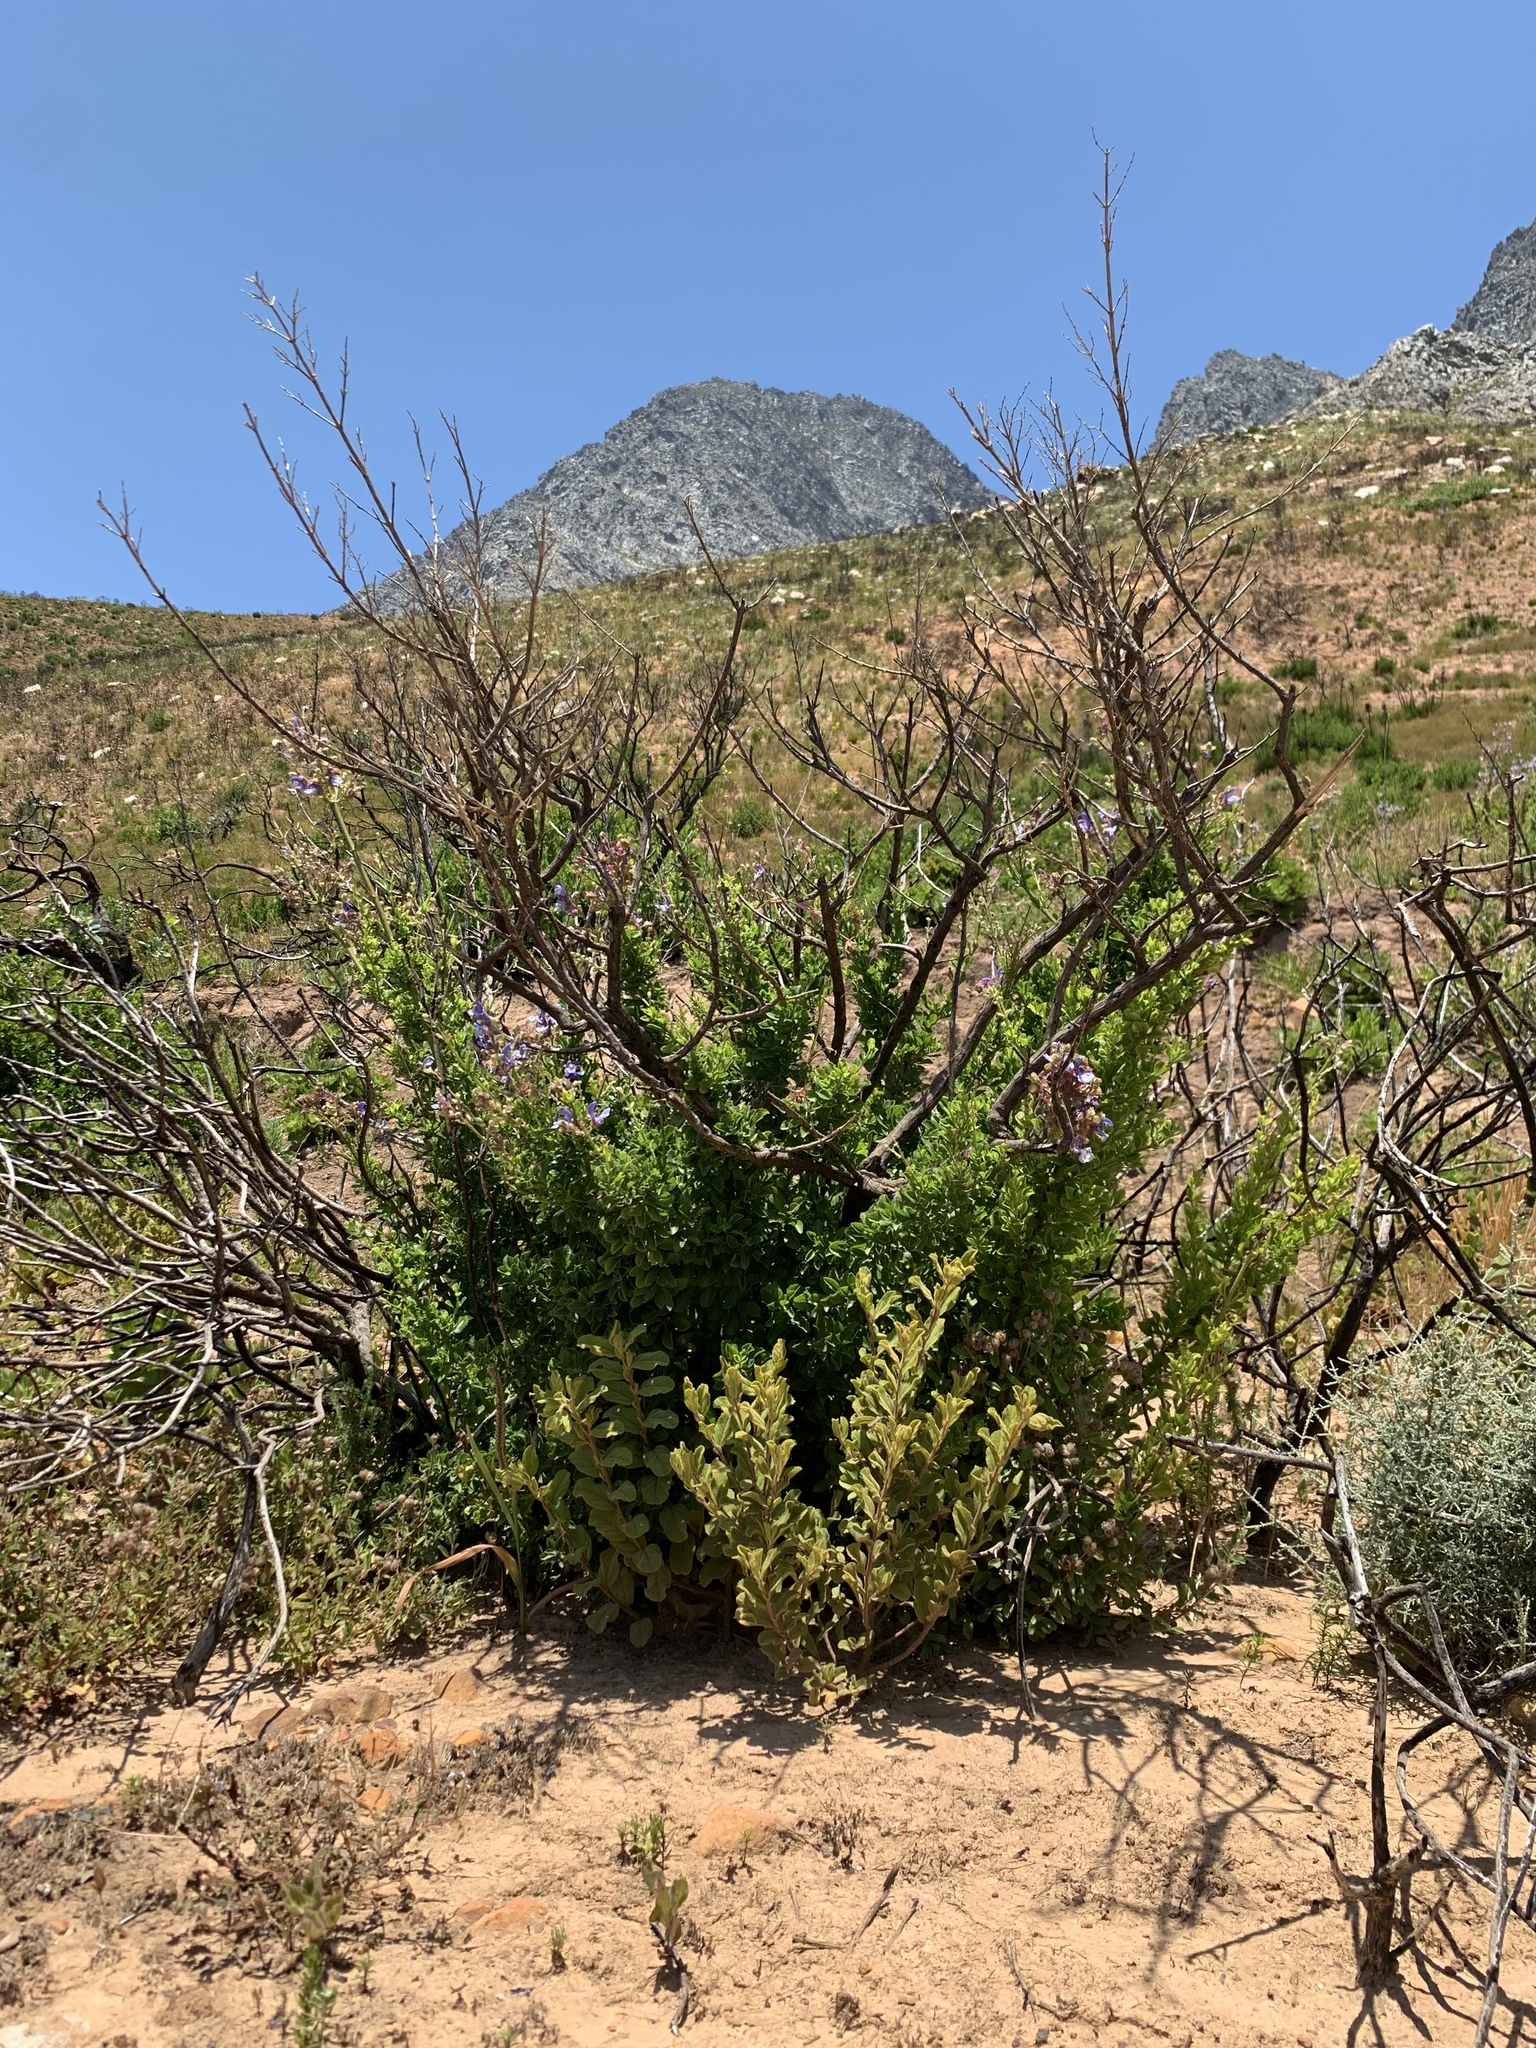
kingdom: Plantae
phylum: Tracheophyta
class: Magnoliopsida
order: Lamiales
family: Lamiaceae
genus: Salvia
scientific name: Salvia chamelaeagnea
